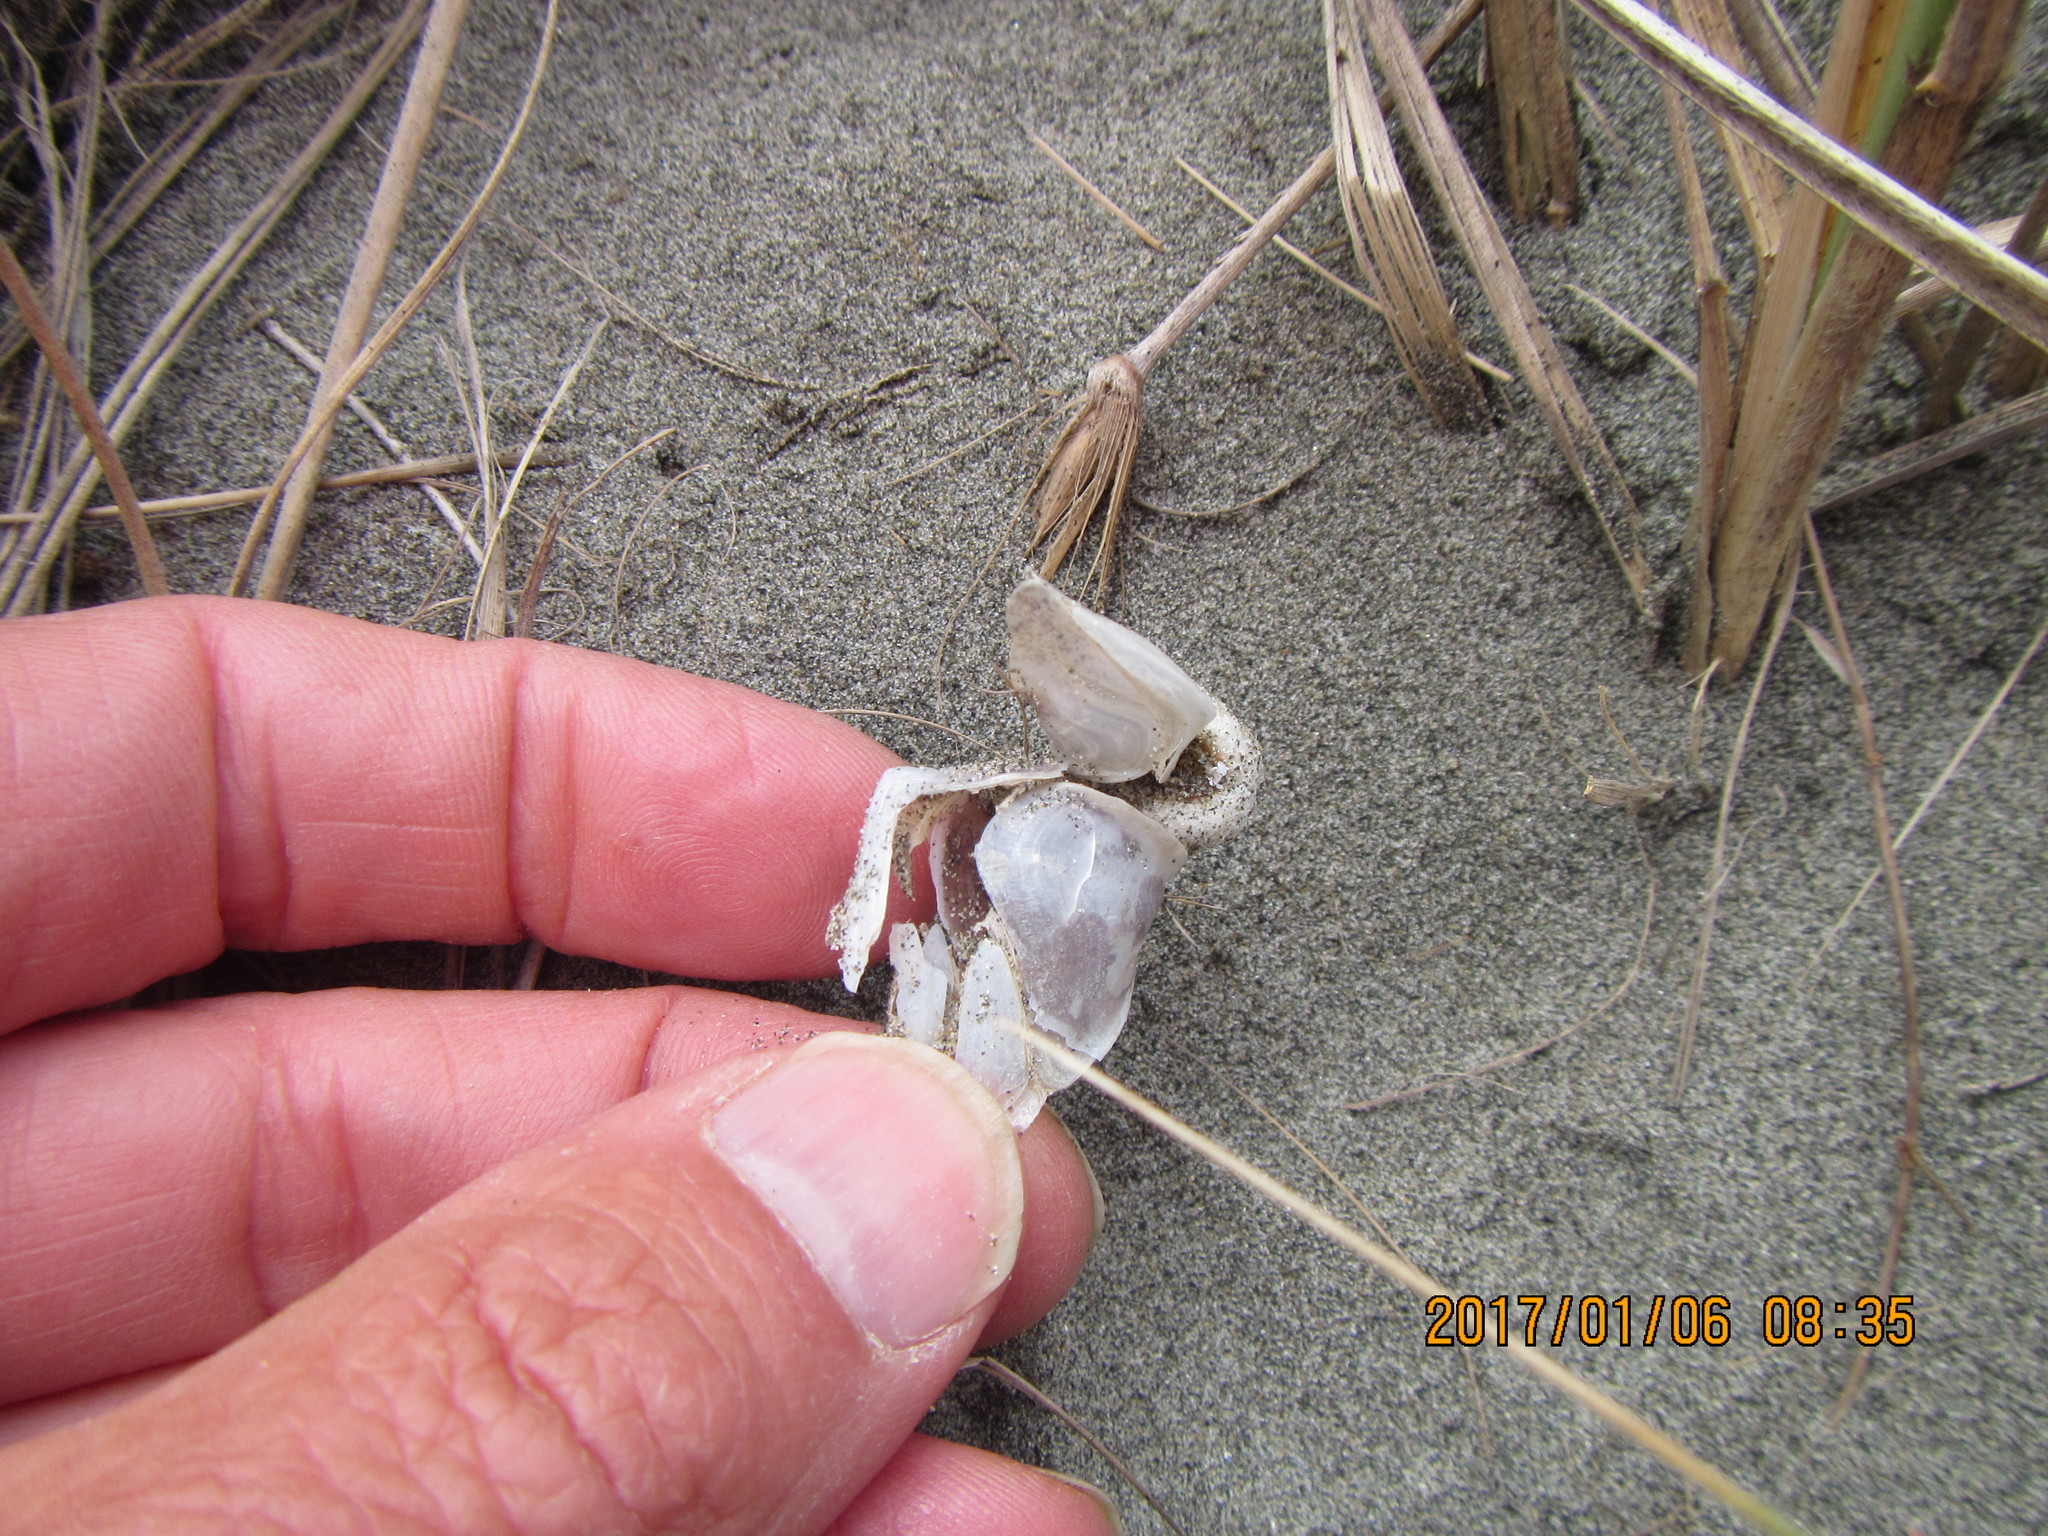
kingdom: Animalia
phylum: Arthropoda
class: Maxillopoda
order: Pedunculata
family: Lepadidae
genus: Dosima
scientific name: Dosima fascicularis
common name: Buoy barnacle
